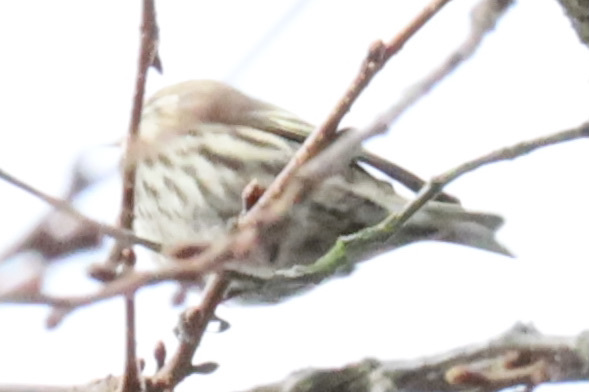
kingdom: Animalia
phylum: Chordata
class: Aves
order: Passeriformes
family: Fringillidae
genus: Spinus
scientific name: Spinus pinus
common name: Pine siskin
